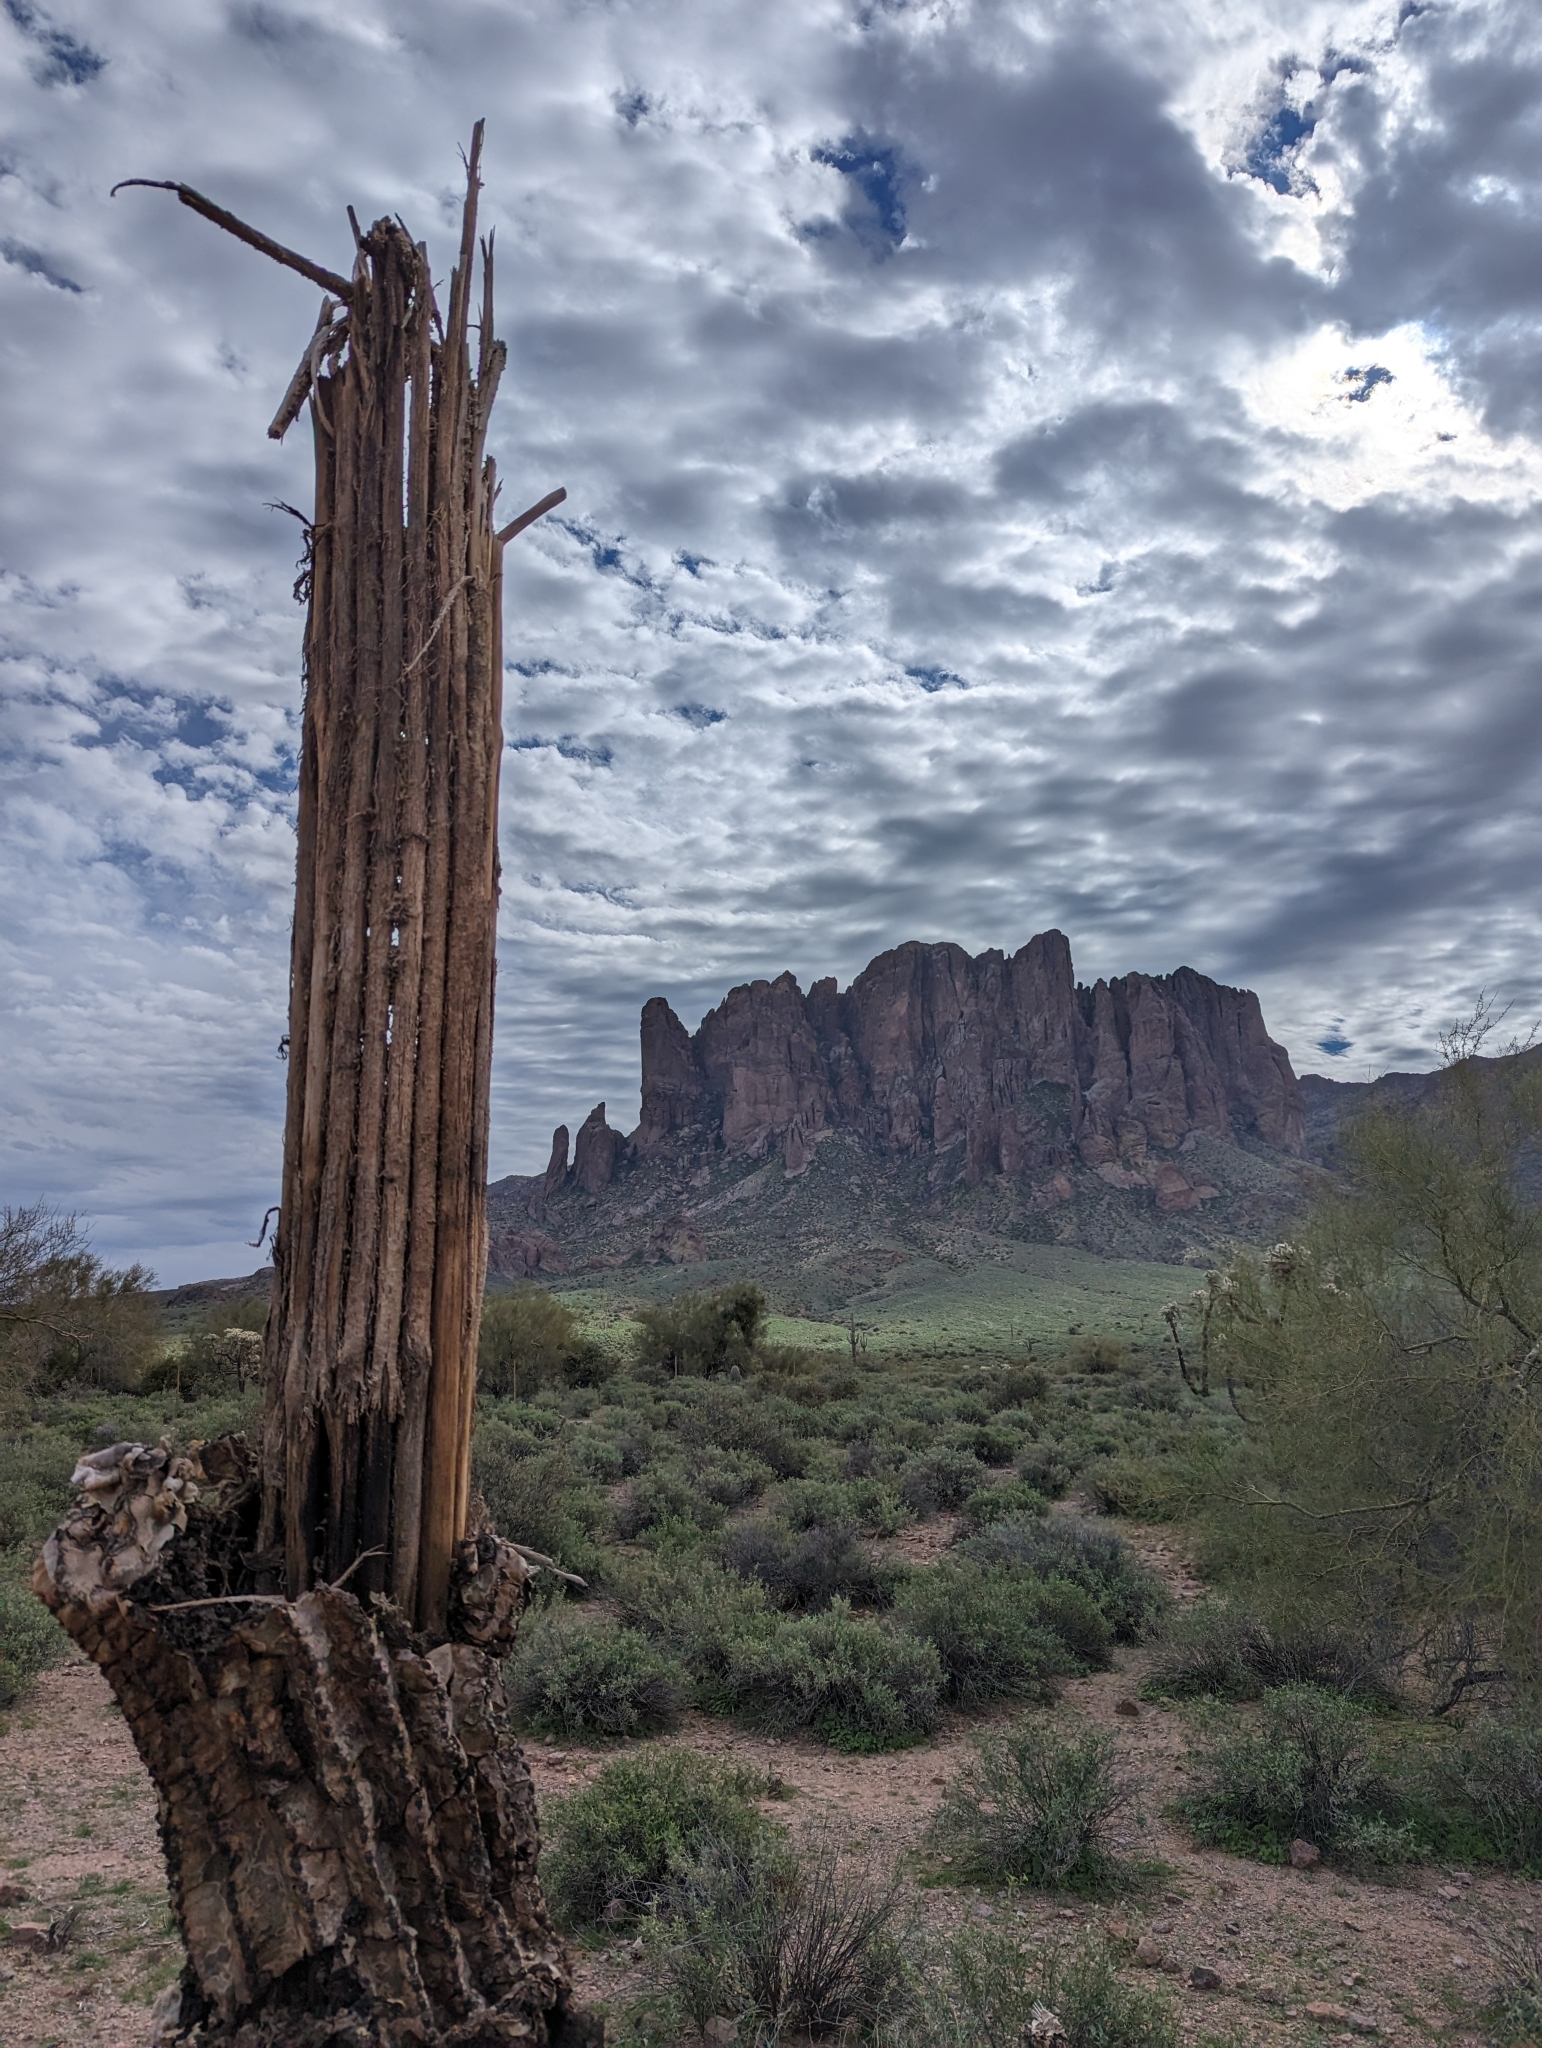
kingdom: Plantae
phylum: Tracheophyta
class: Magnoliopsida
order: Caryophyllales
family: Cactaceae
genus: Carnegiea
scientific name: Carnegiea gigantea
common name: Saguaro
